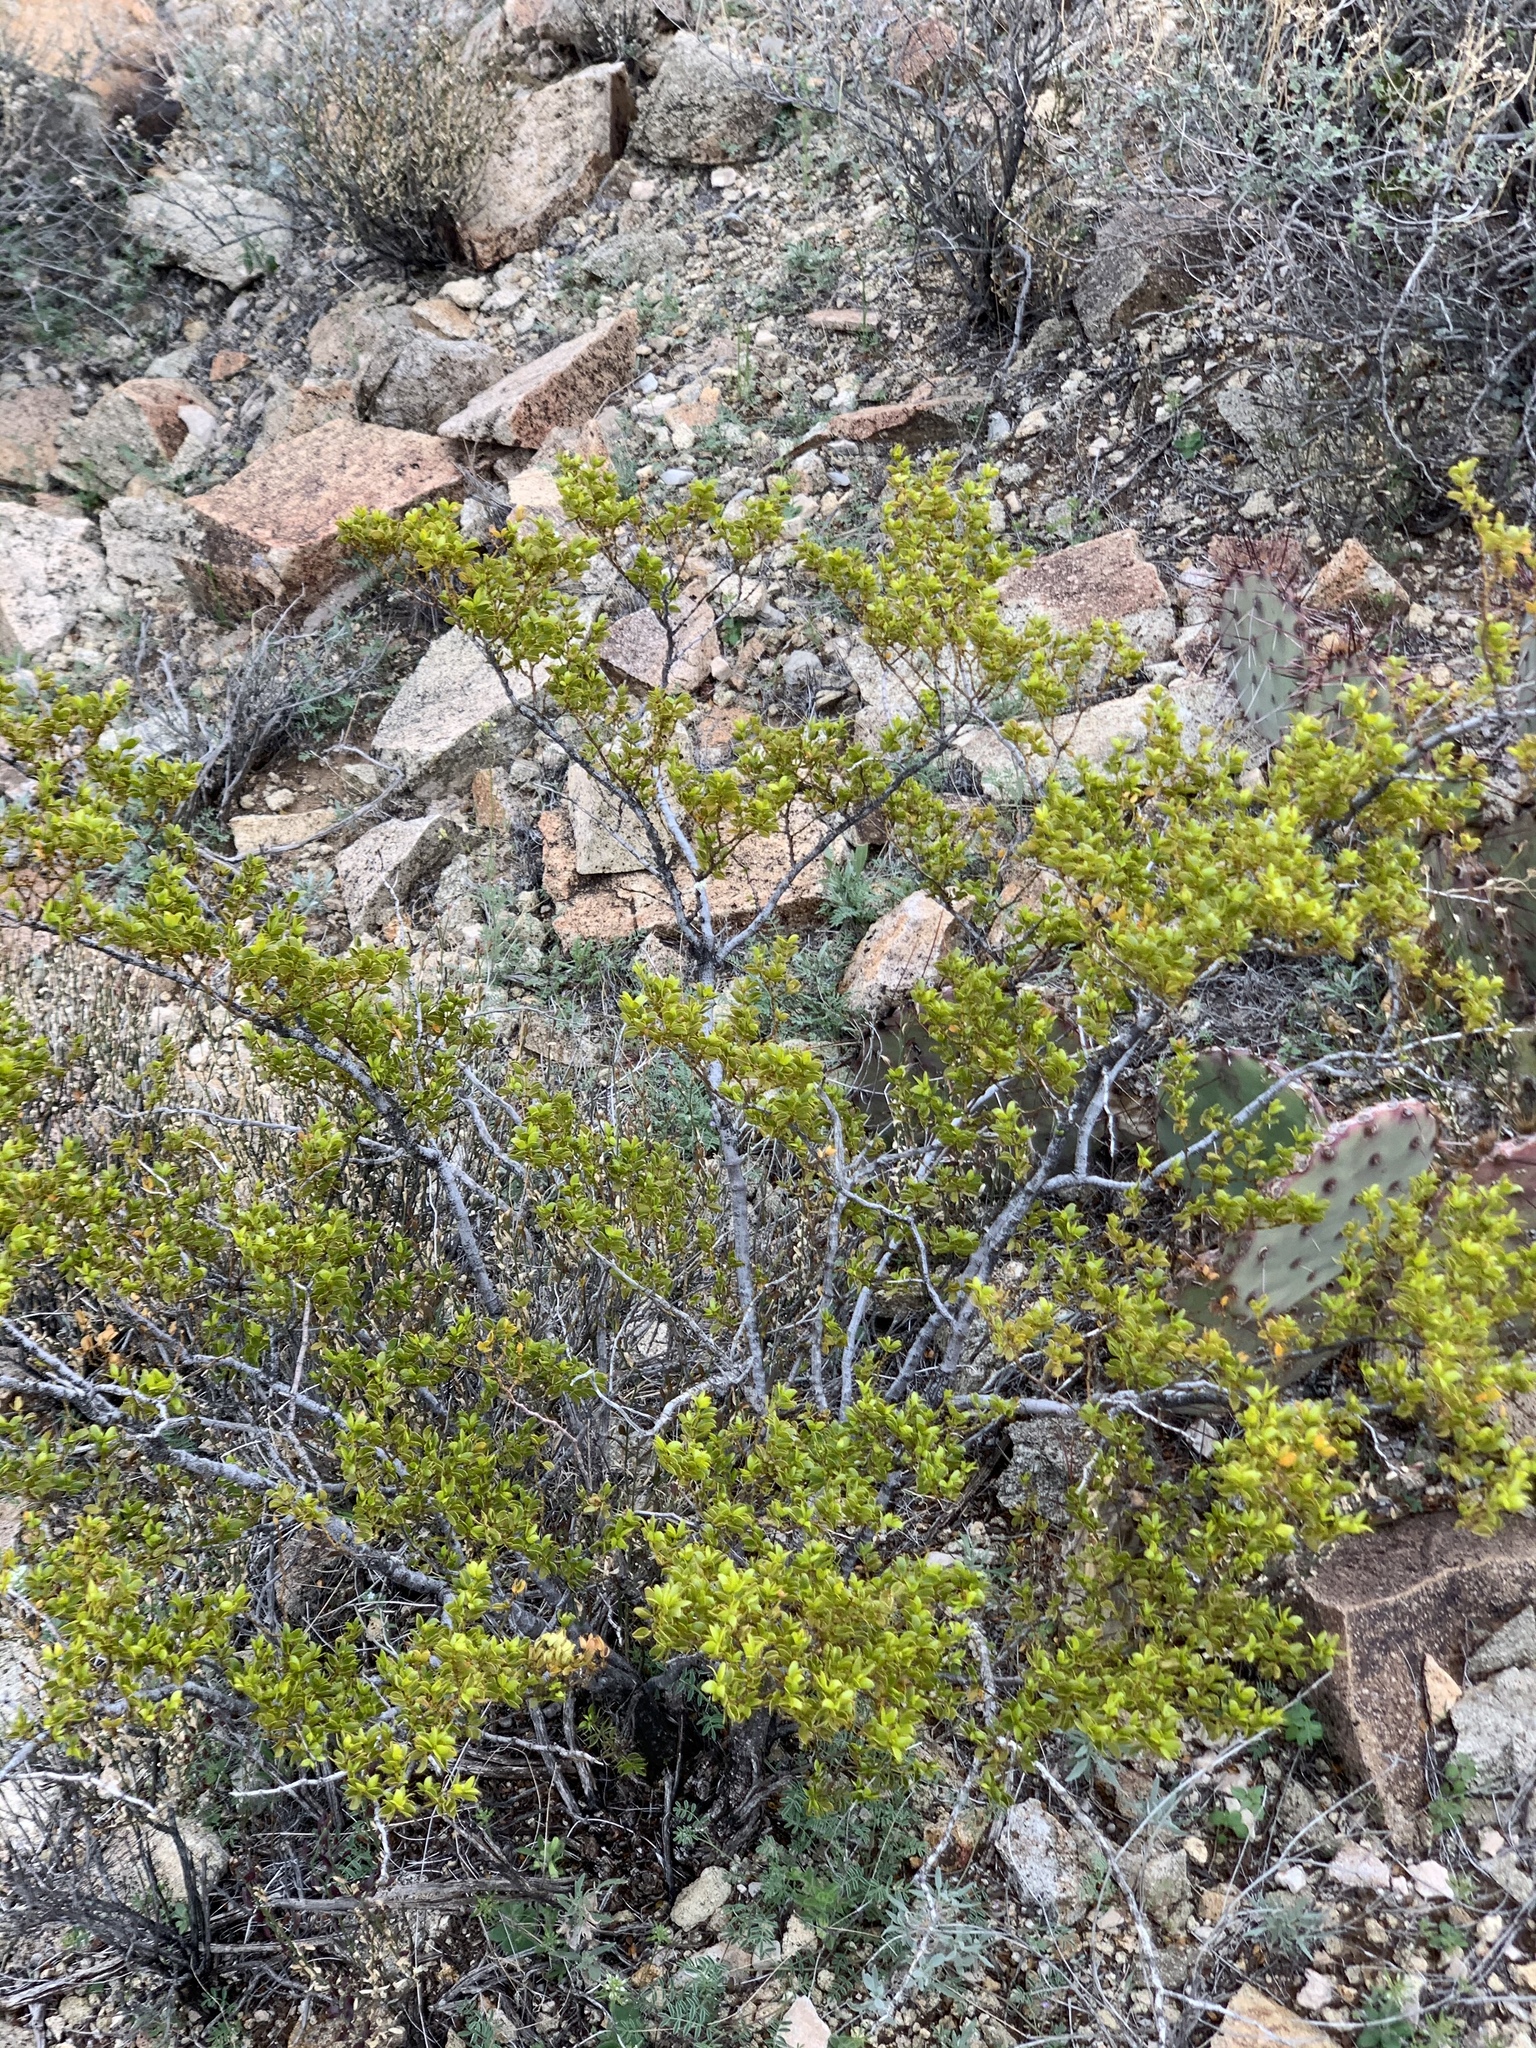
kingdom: Plantae
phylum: Tracheophyta
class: Magnoliopsida
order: Zygophyllales
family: Zygophyllaceae
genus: Larrea
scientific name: Larrea tridentata
